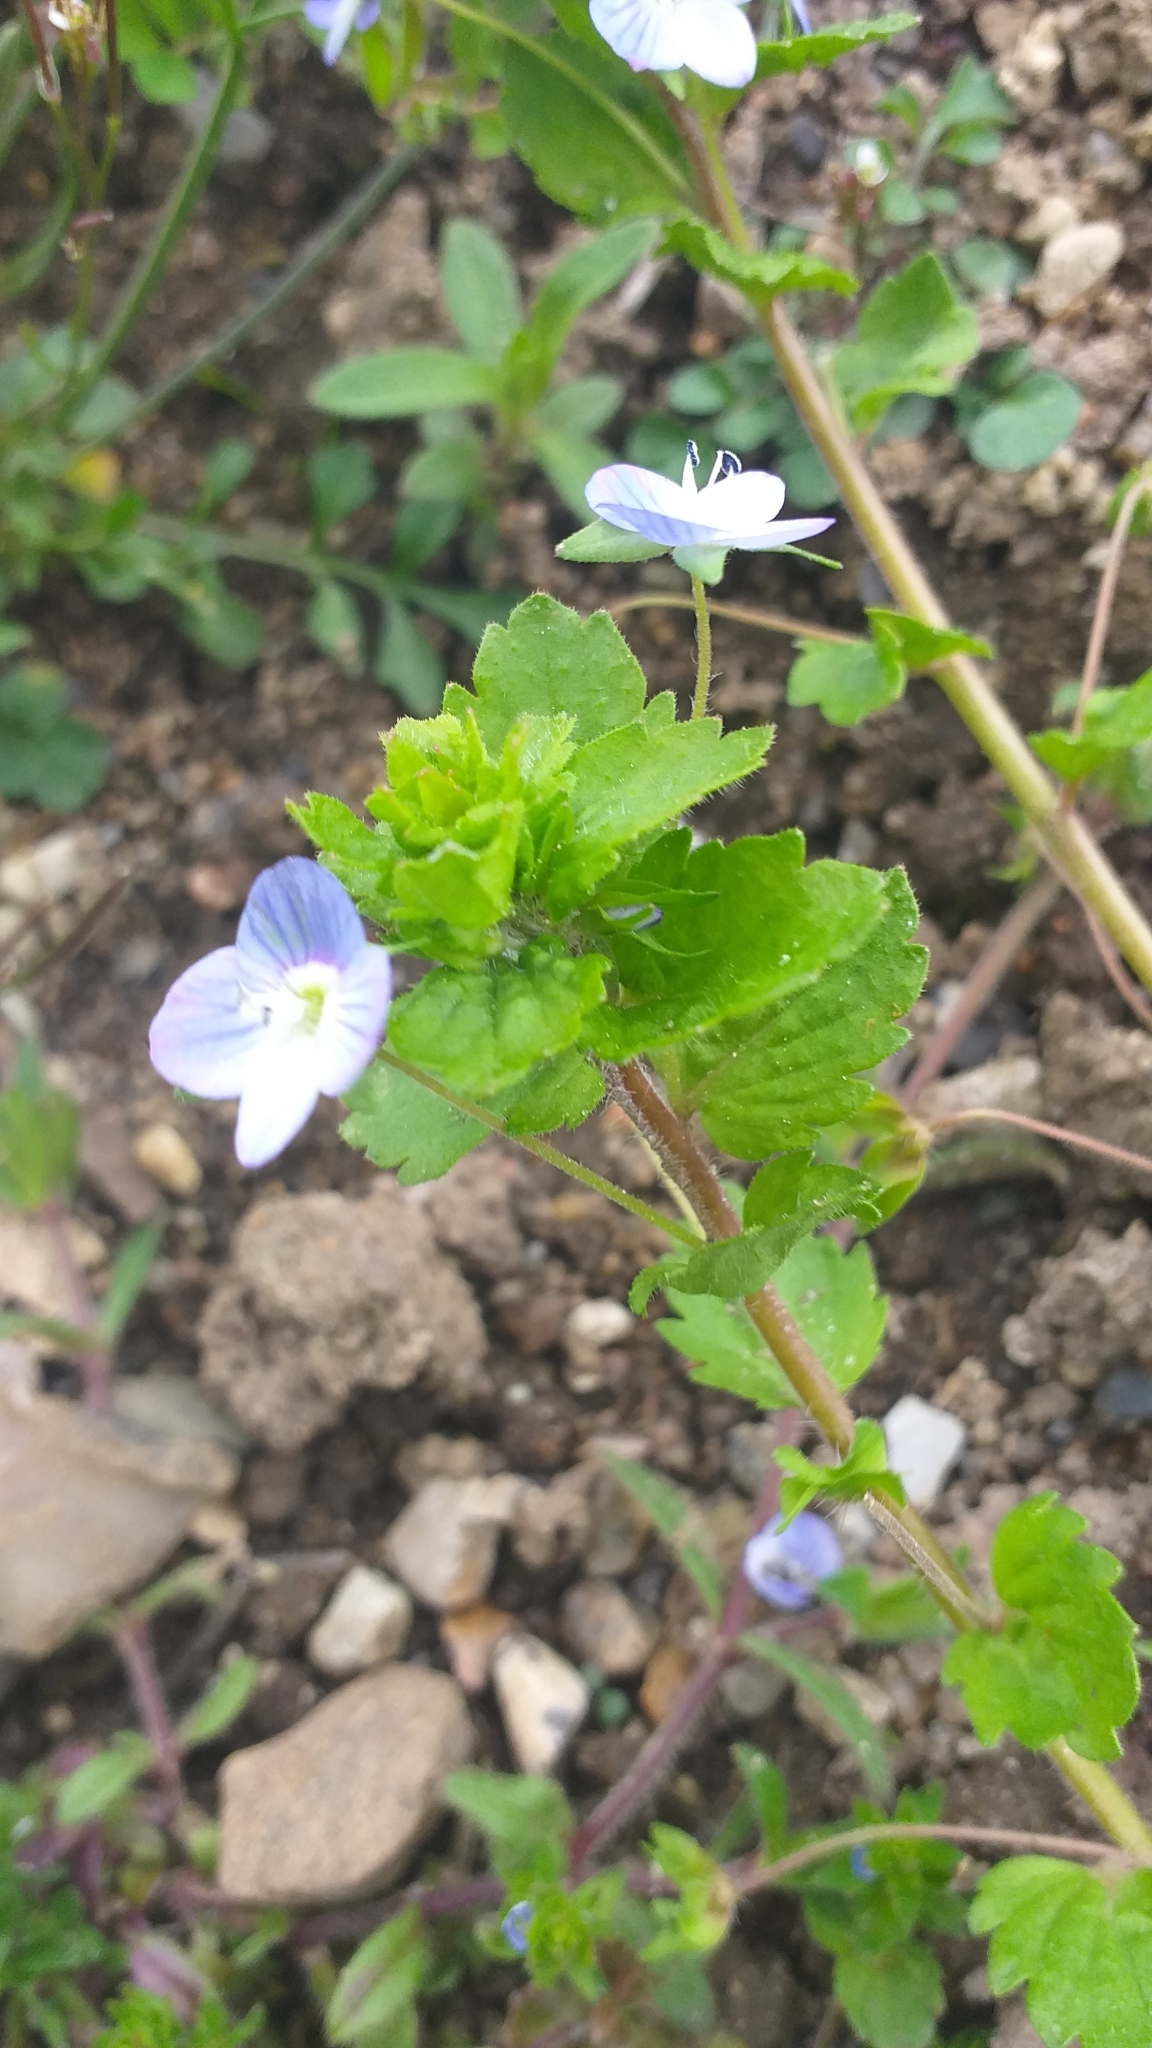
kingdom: Plantae
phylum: Tracheophyta
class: Magnoliopsida
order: Lamiales
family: Plantaginaceae
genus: Veronica
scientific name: Veronica persica
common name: Common field-speedwell
